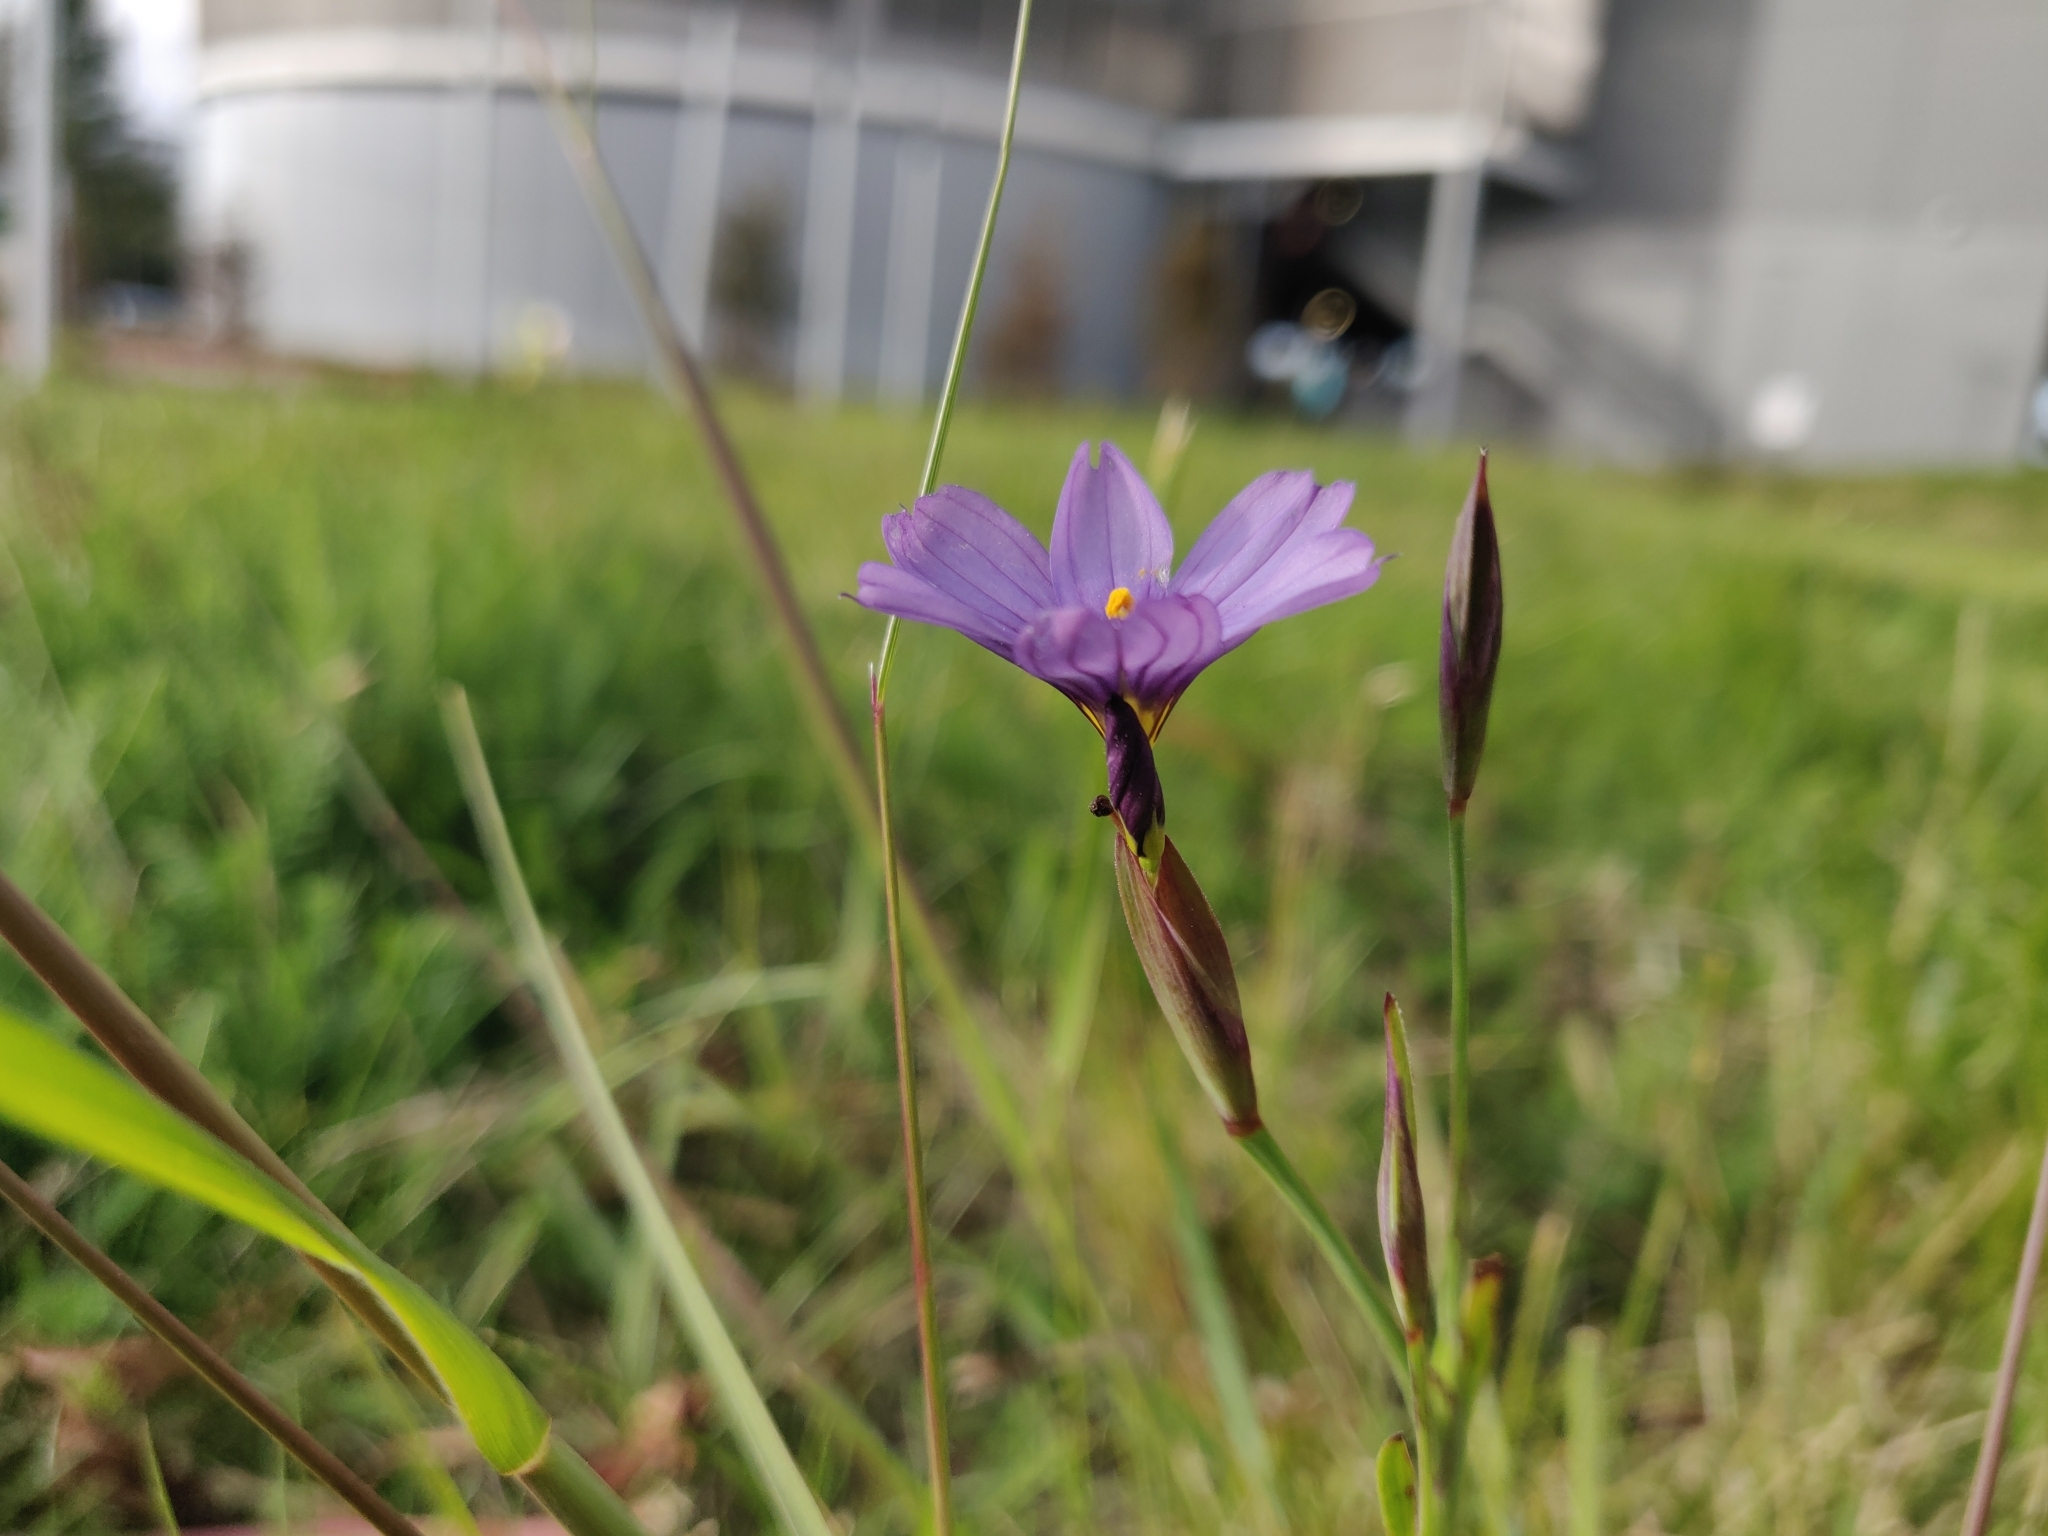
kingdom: Plantae
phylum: Tracheophyta
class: Liliopsida
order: Asparagales
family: Iridaceae
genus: Sisyrinchium
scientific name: Sisyrinchium bellum
